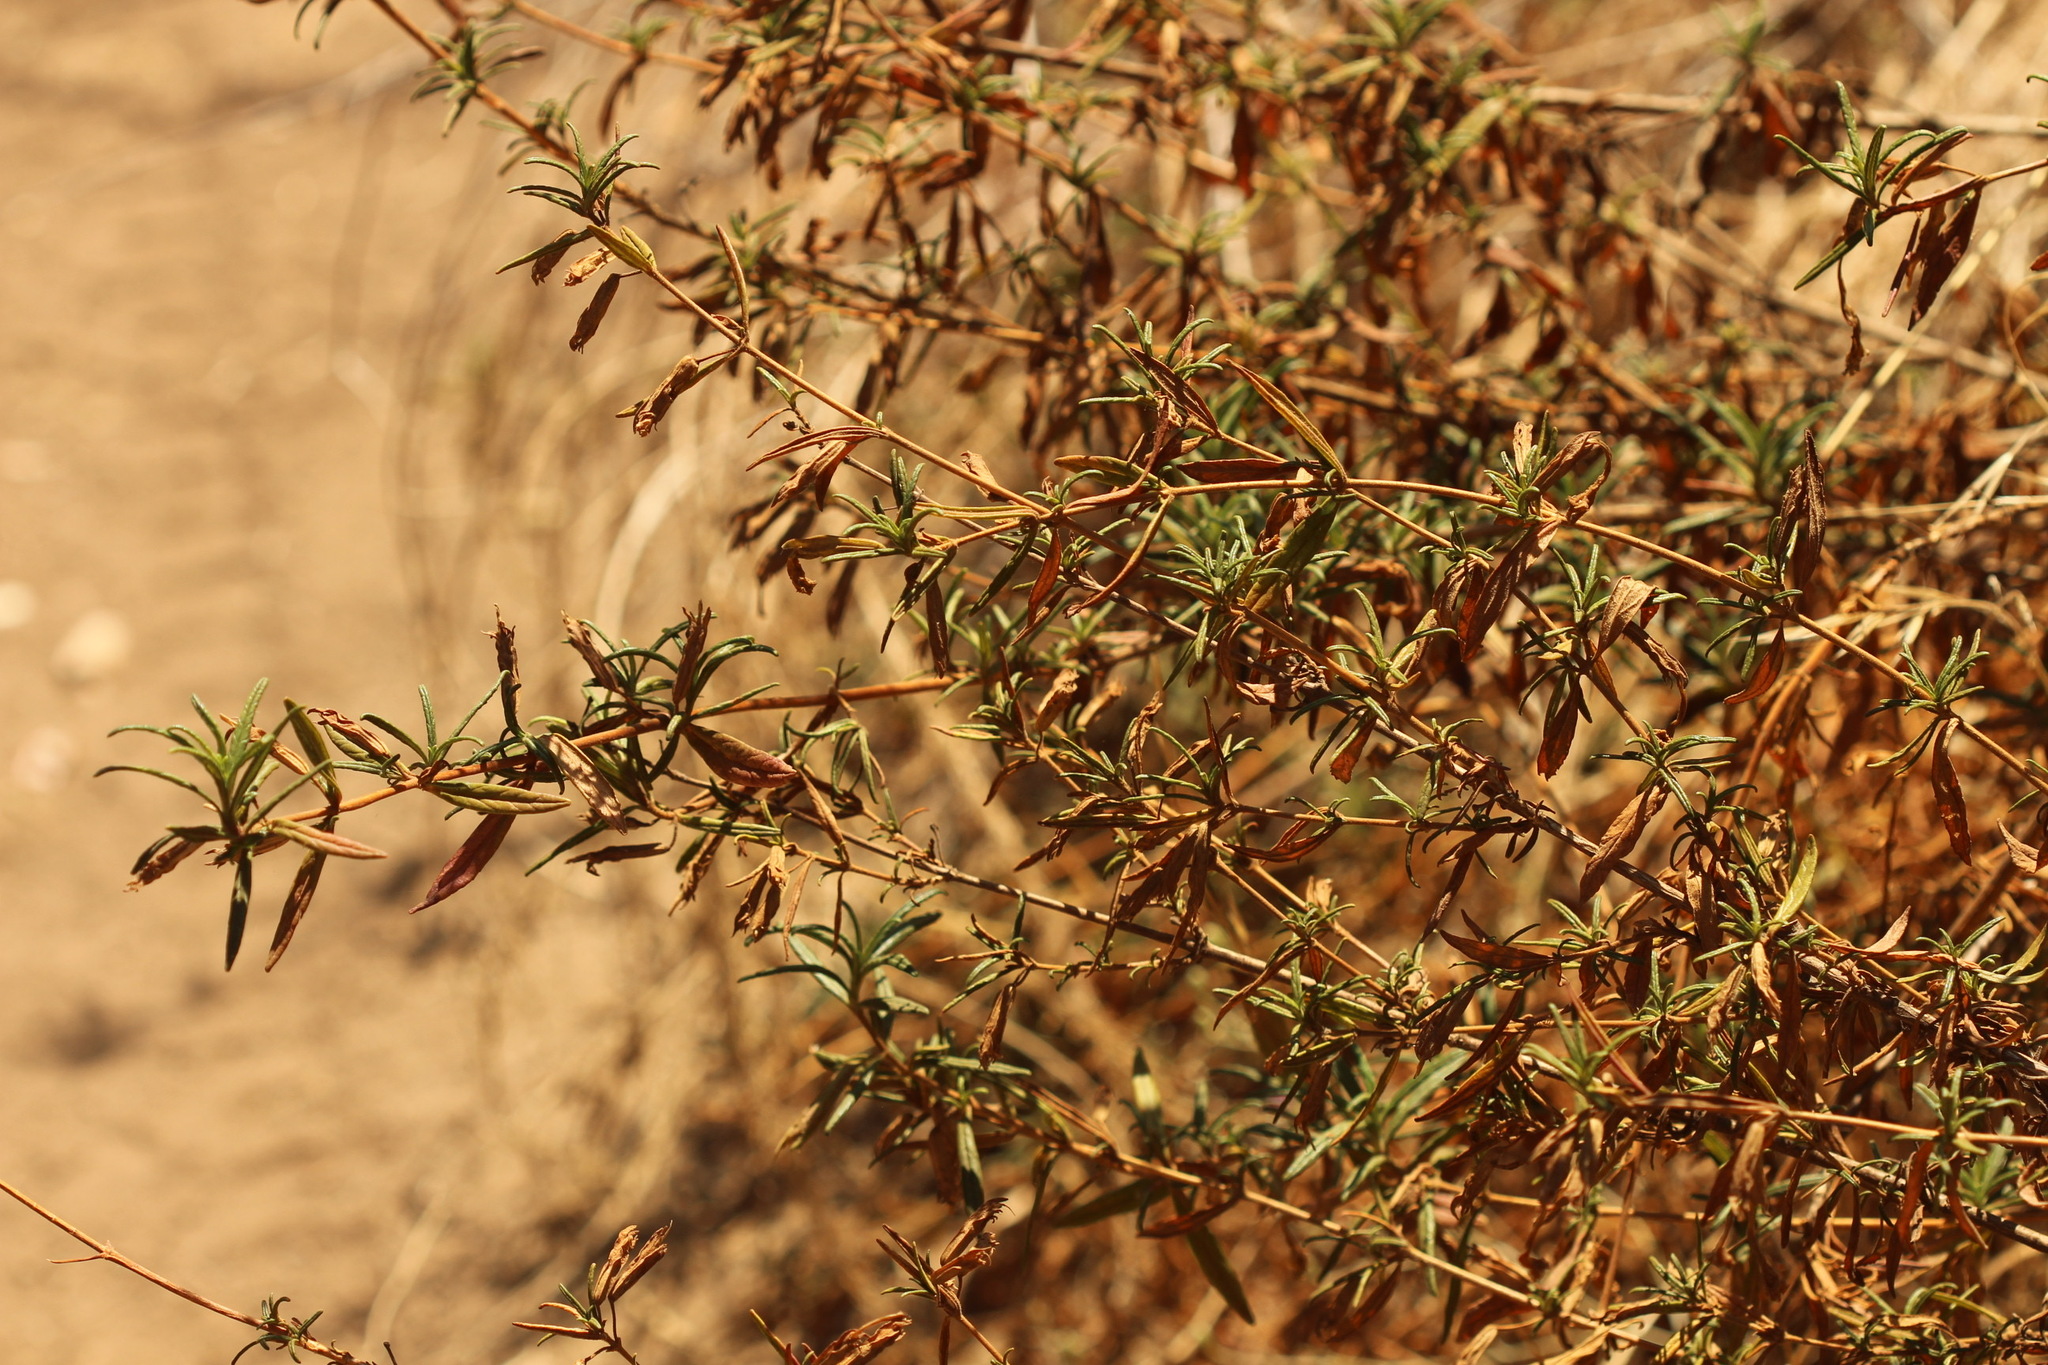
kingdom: Plantae
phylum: Tracheophyta
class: Magnoliopsida
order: Lamiales
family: Phrymaceae
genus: Diplacus
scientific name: Diplacus aurantiacus
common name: Bush monkey-flower
